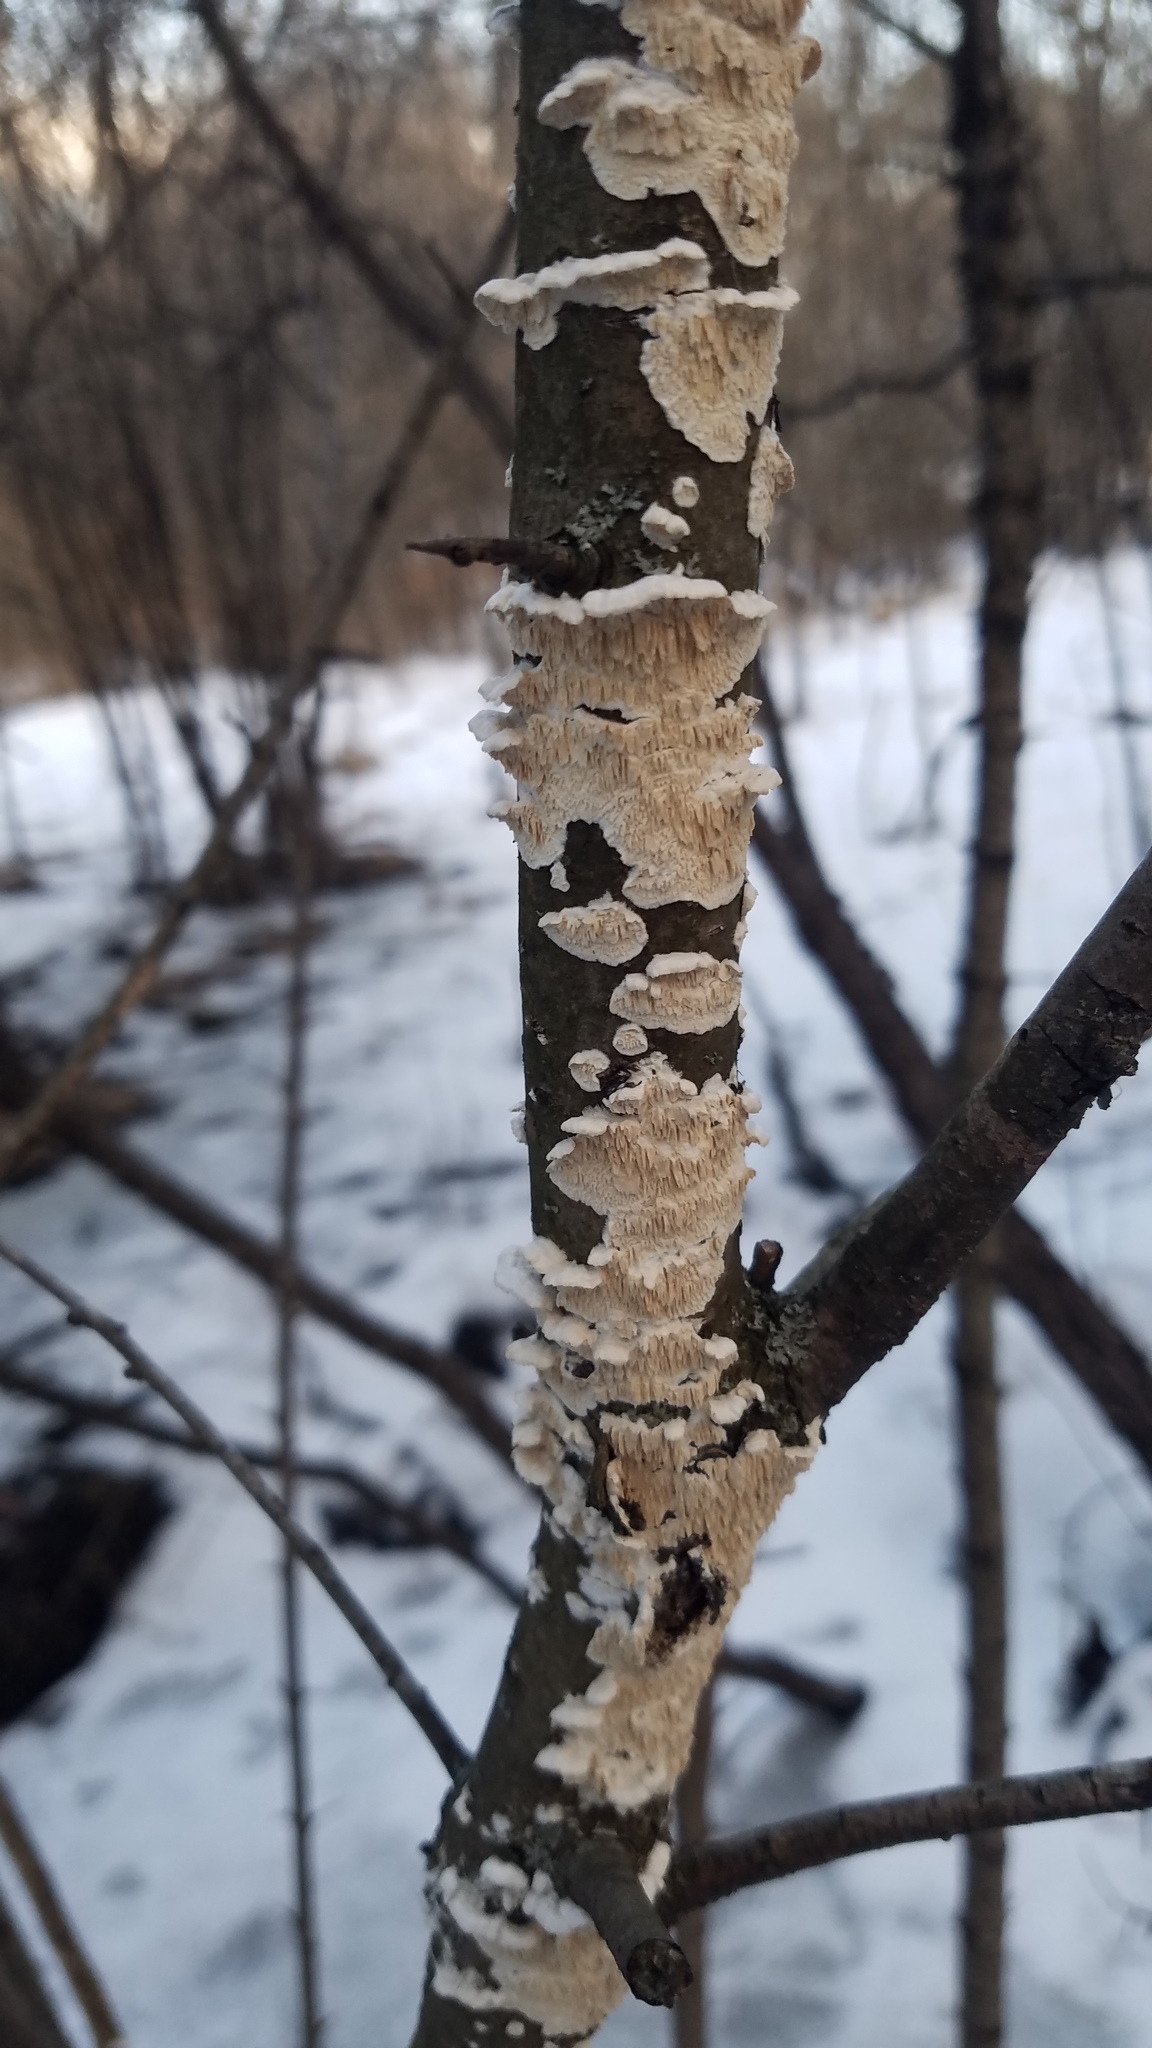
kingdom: Fungi
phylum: Basidiomycota
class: Agaricomycetes
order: Polyporales
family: Irpicaceae
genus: Irpex
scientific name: Irpex lacteus
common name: Milk-white toothed polypore
